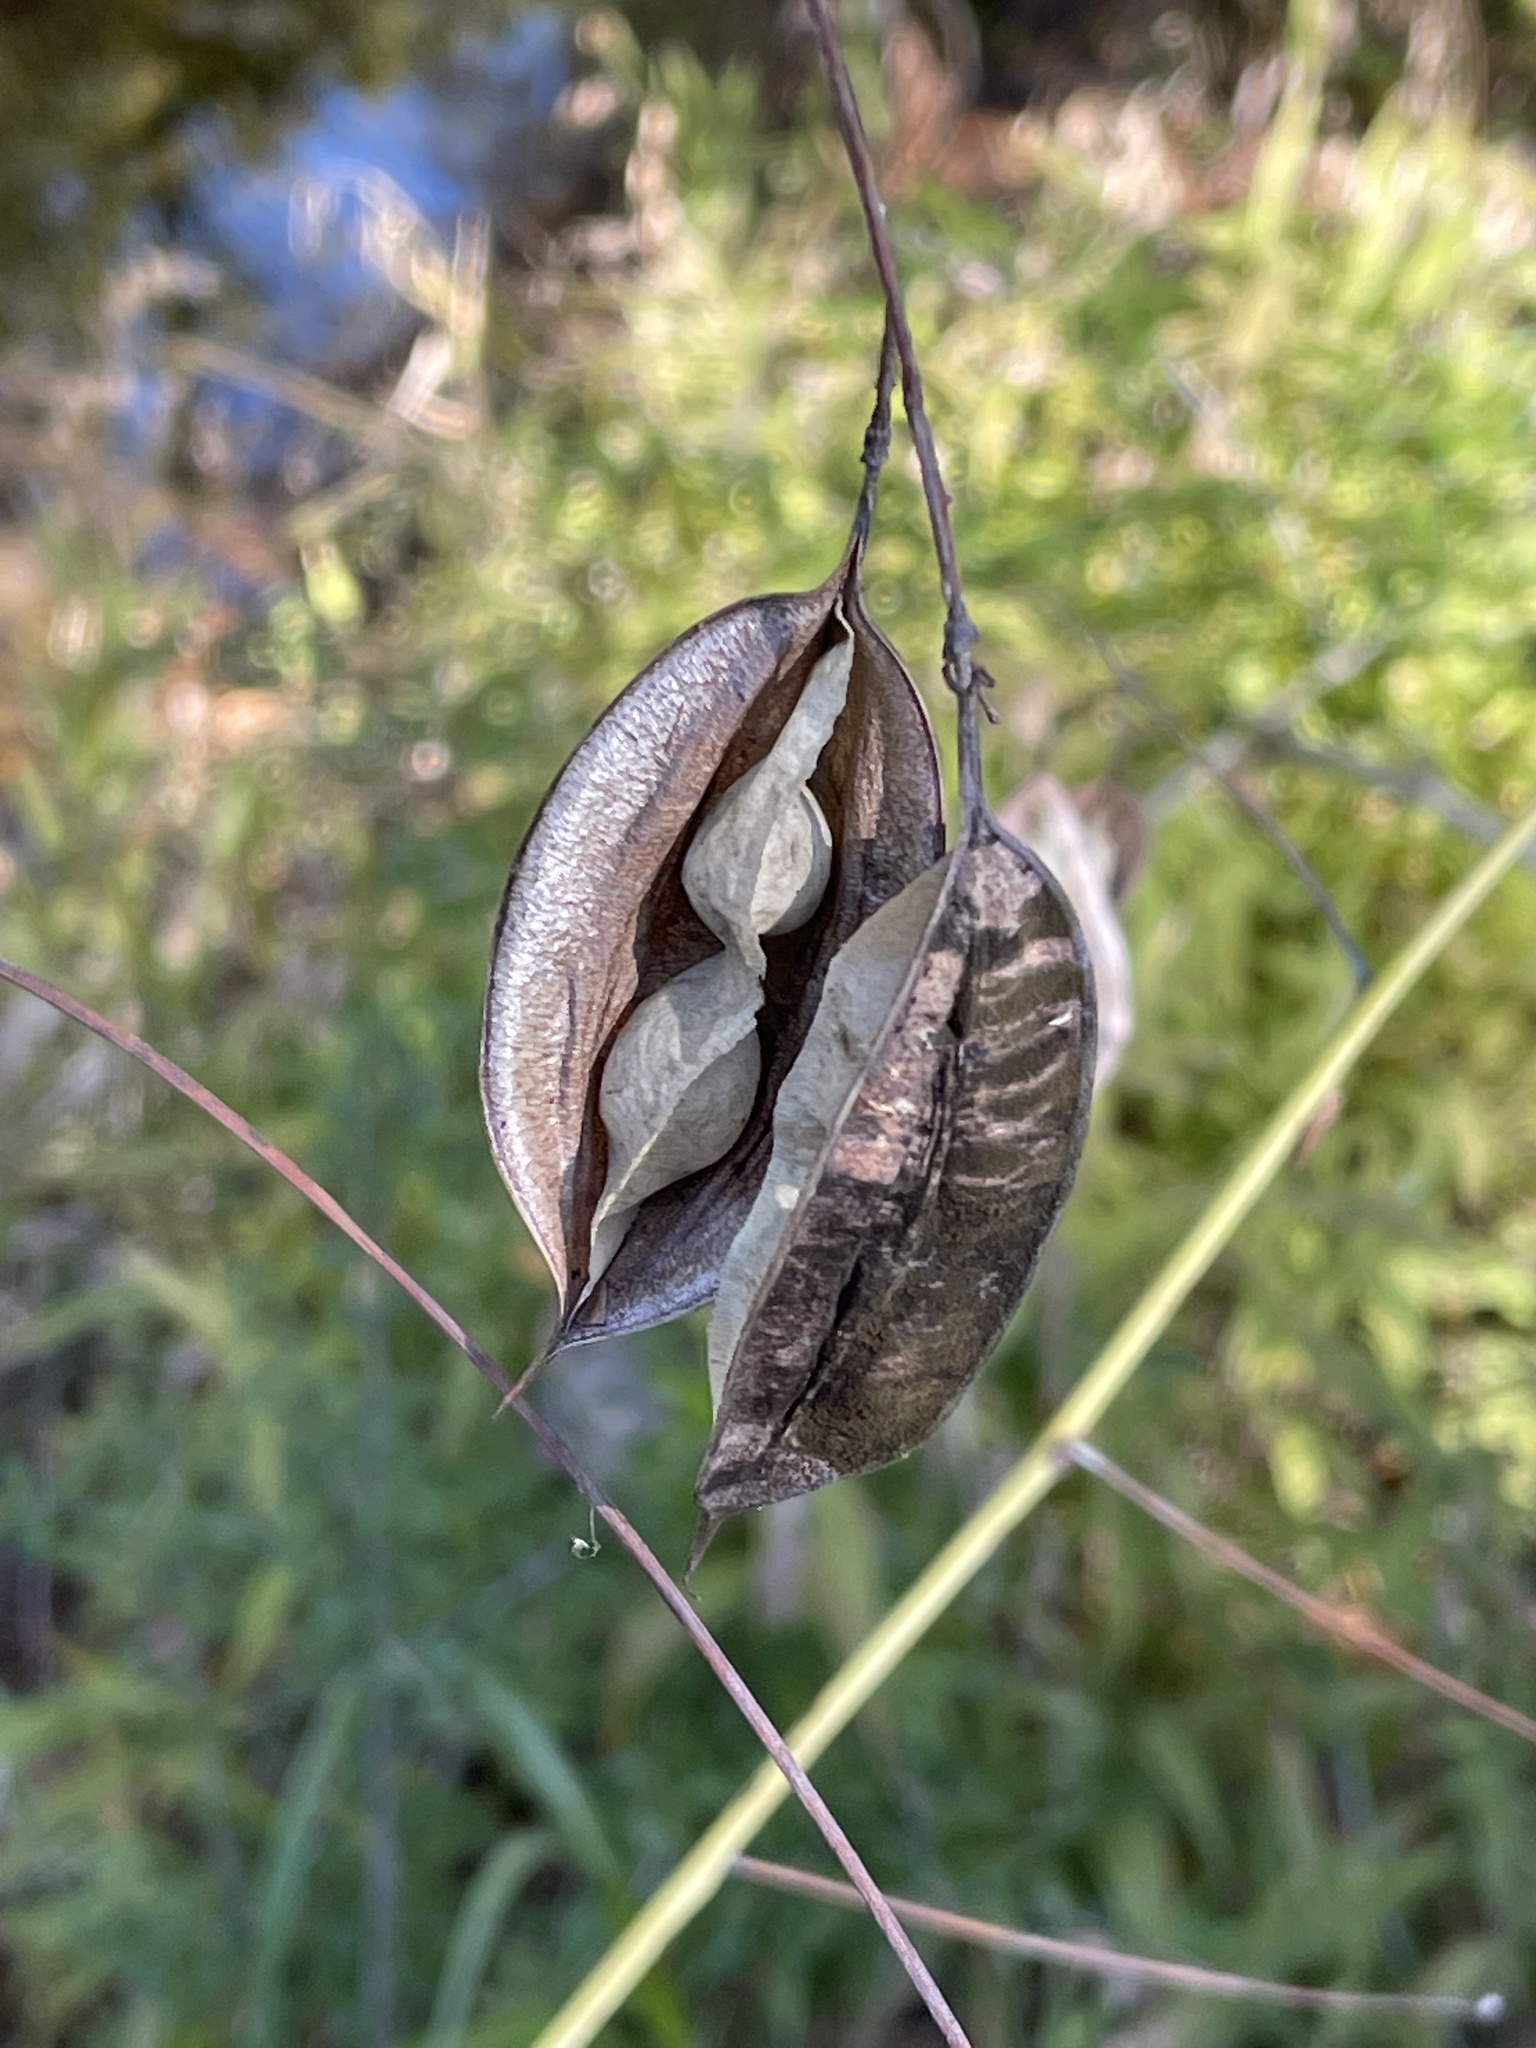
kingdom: Plantae
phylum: Tracheophyta
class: Magnoliopsida
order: Fabales
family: Fabaceae
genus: Sesbania
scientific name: Sesbania vesicaria
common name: Bagpod
